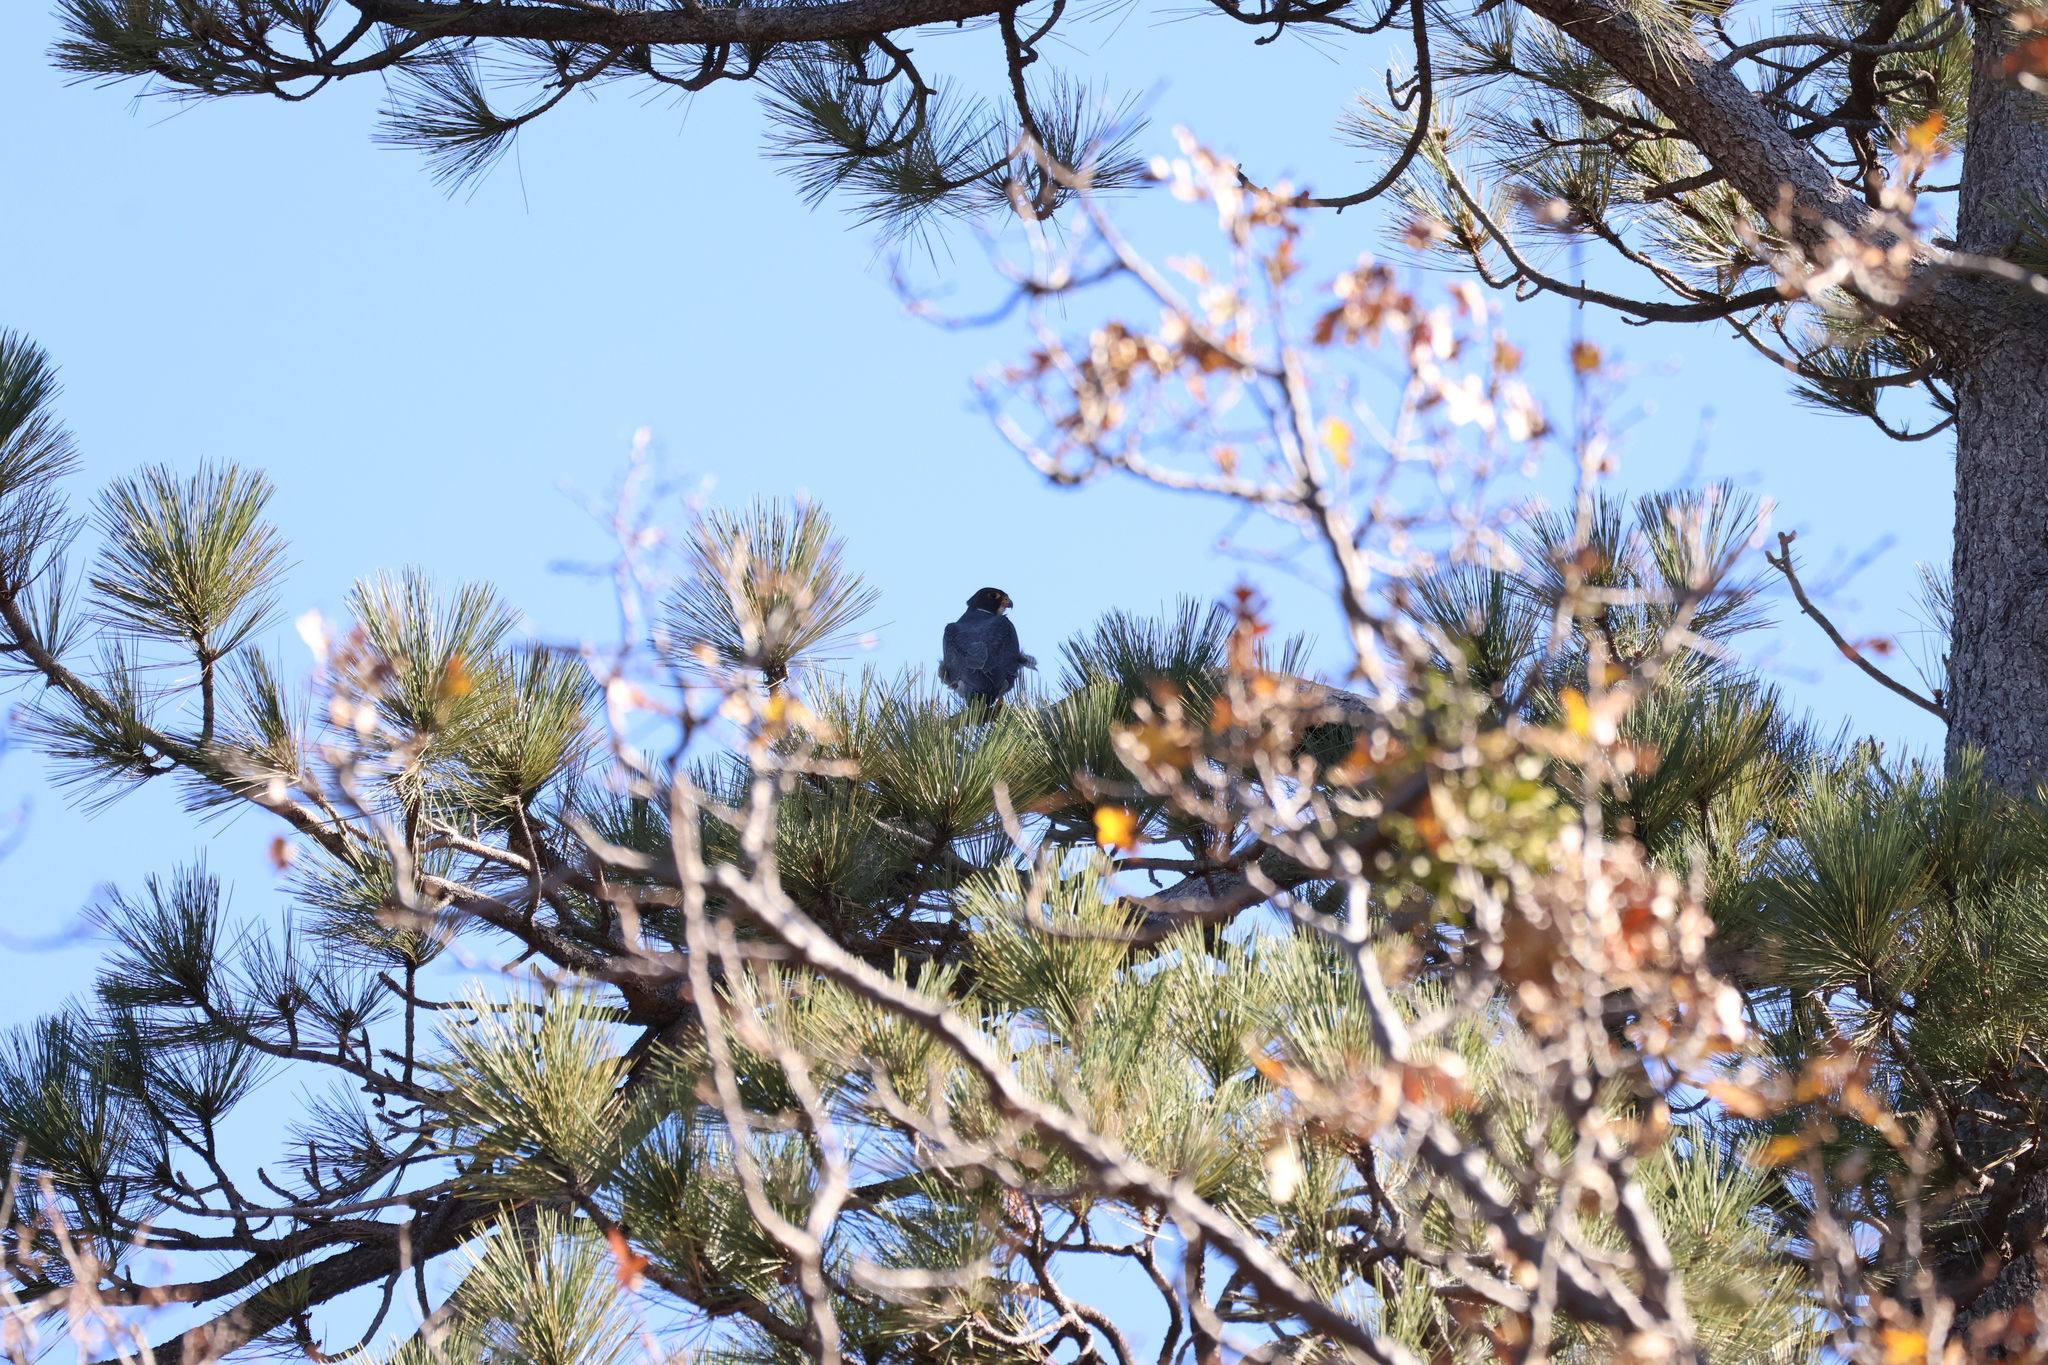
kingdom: Animalia
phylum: Chordata
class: Aves
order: Falconiformes
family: Falconidae
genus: Falco
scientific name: Falco peregrinus
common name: Peregrine falcon
